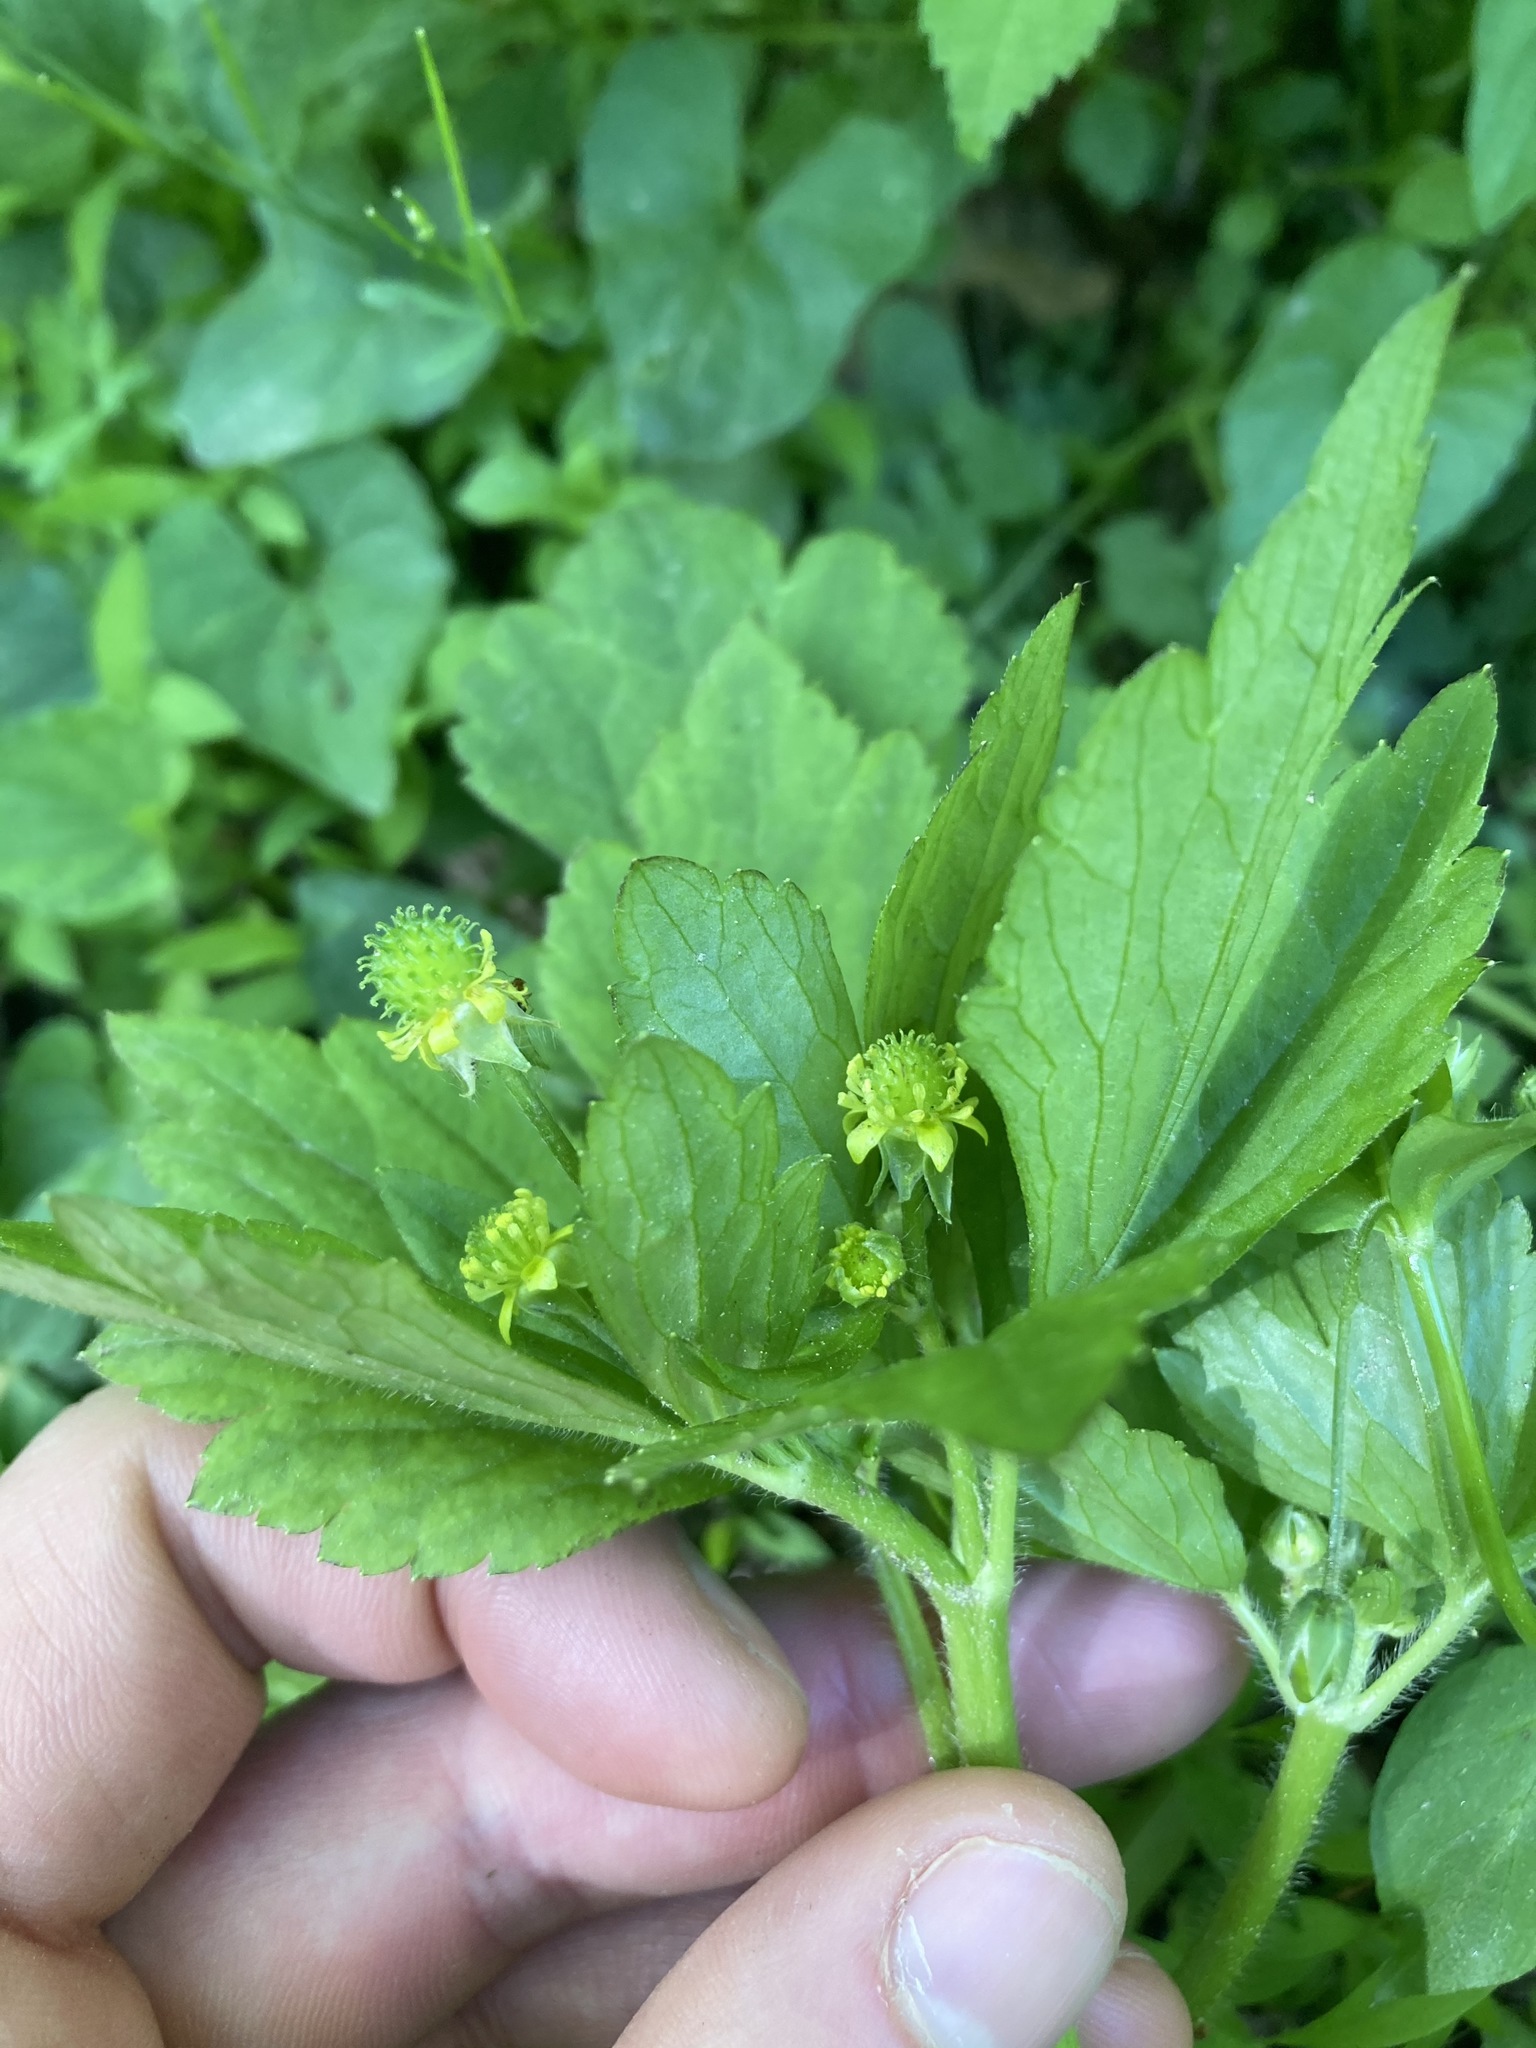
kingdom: Plantae
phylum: Tracheophyta
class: Magnoliopsida
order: Ranunculales
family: Ranunculaceae
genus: Ranunculus
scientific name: Ranunculus recurvatus
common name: Blisterwort
